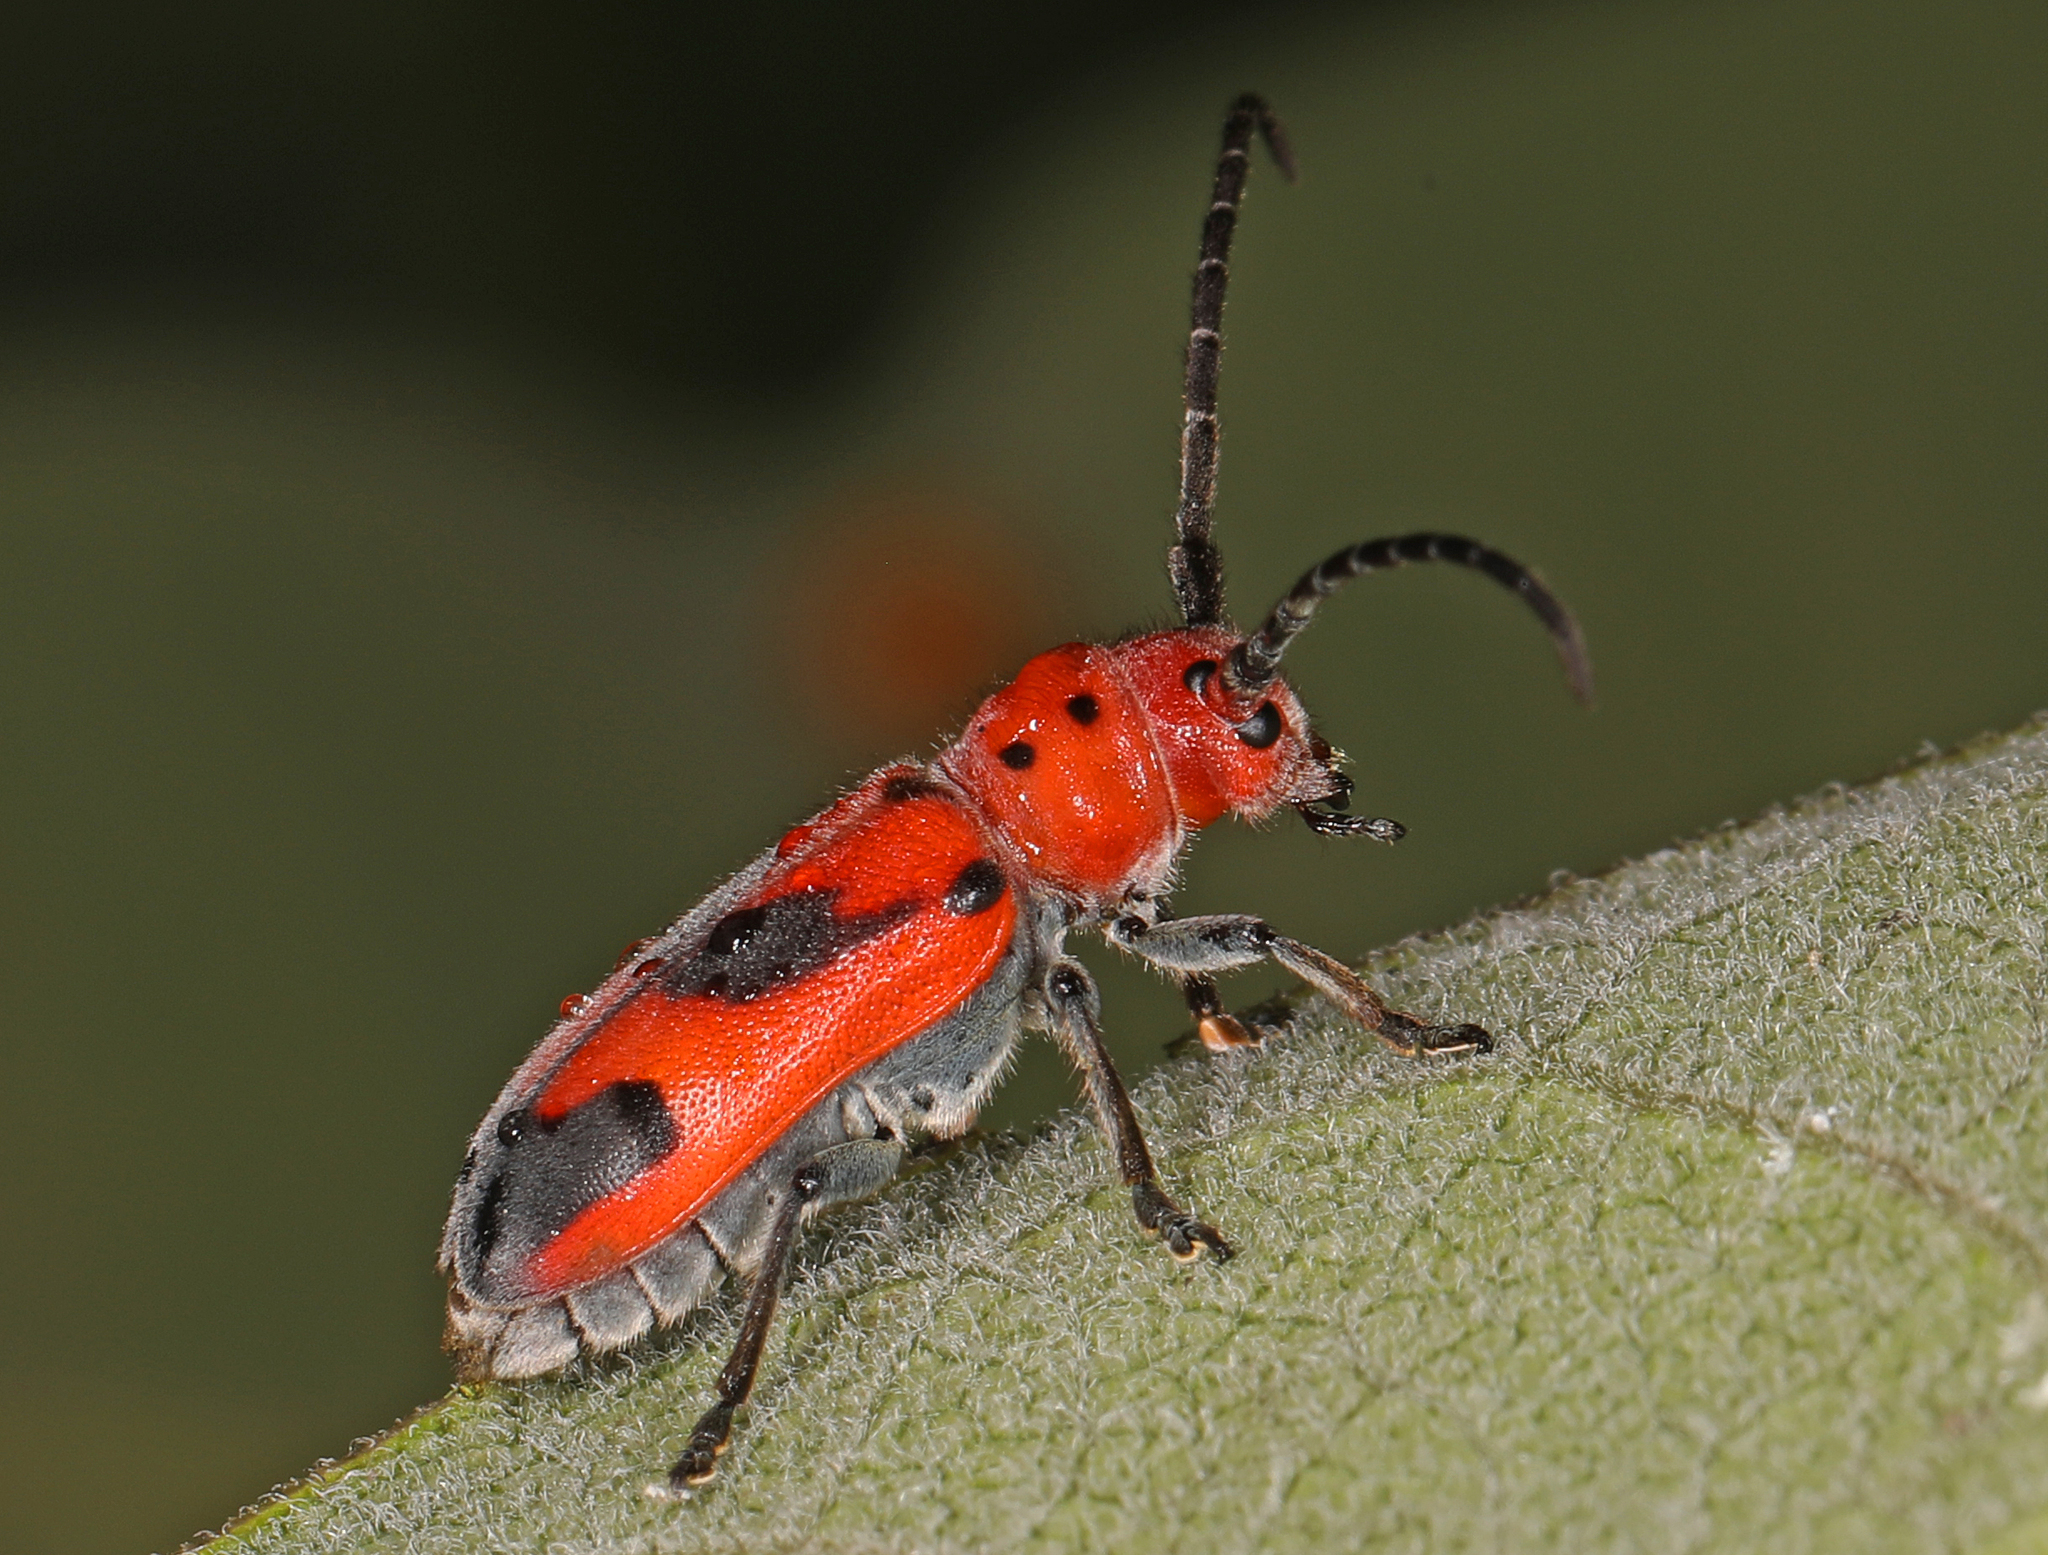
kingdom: Animalia
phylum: Arthropoda
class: Insecta
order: Coleoptera
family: Cerambycidae
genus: Tetraopes
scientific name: Tetraopes melanurus
